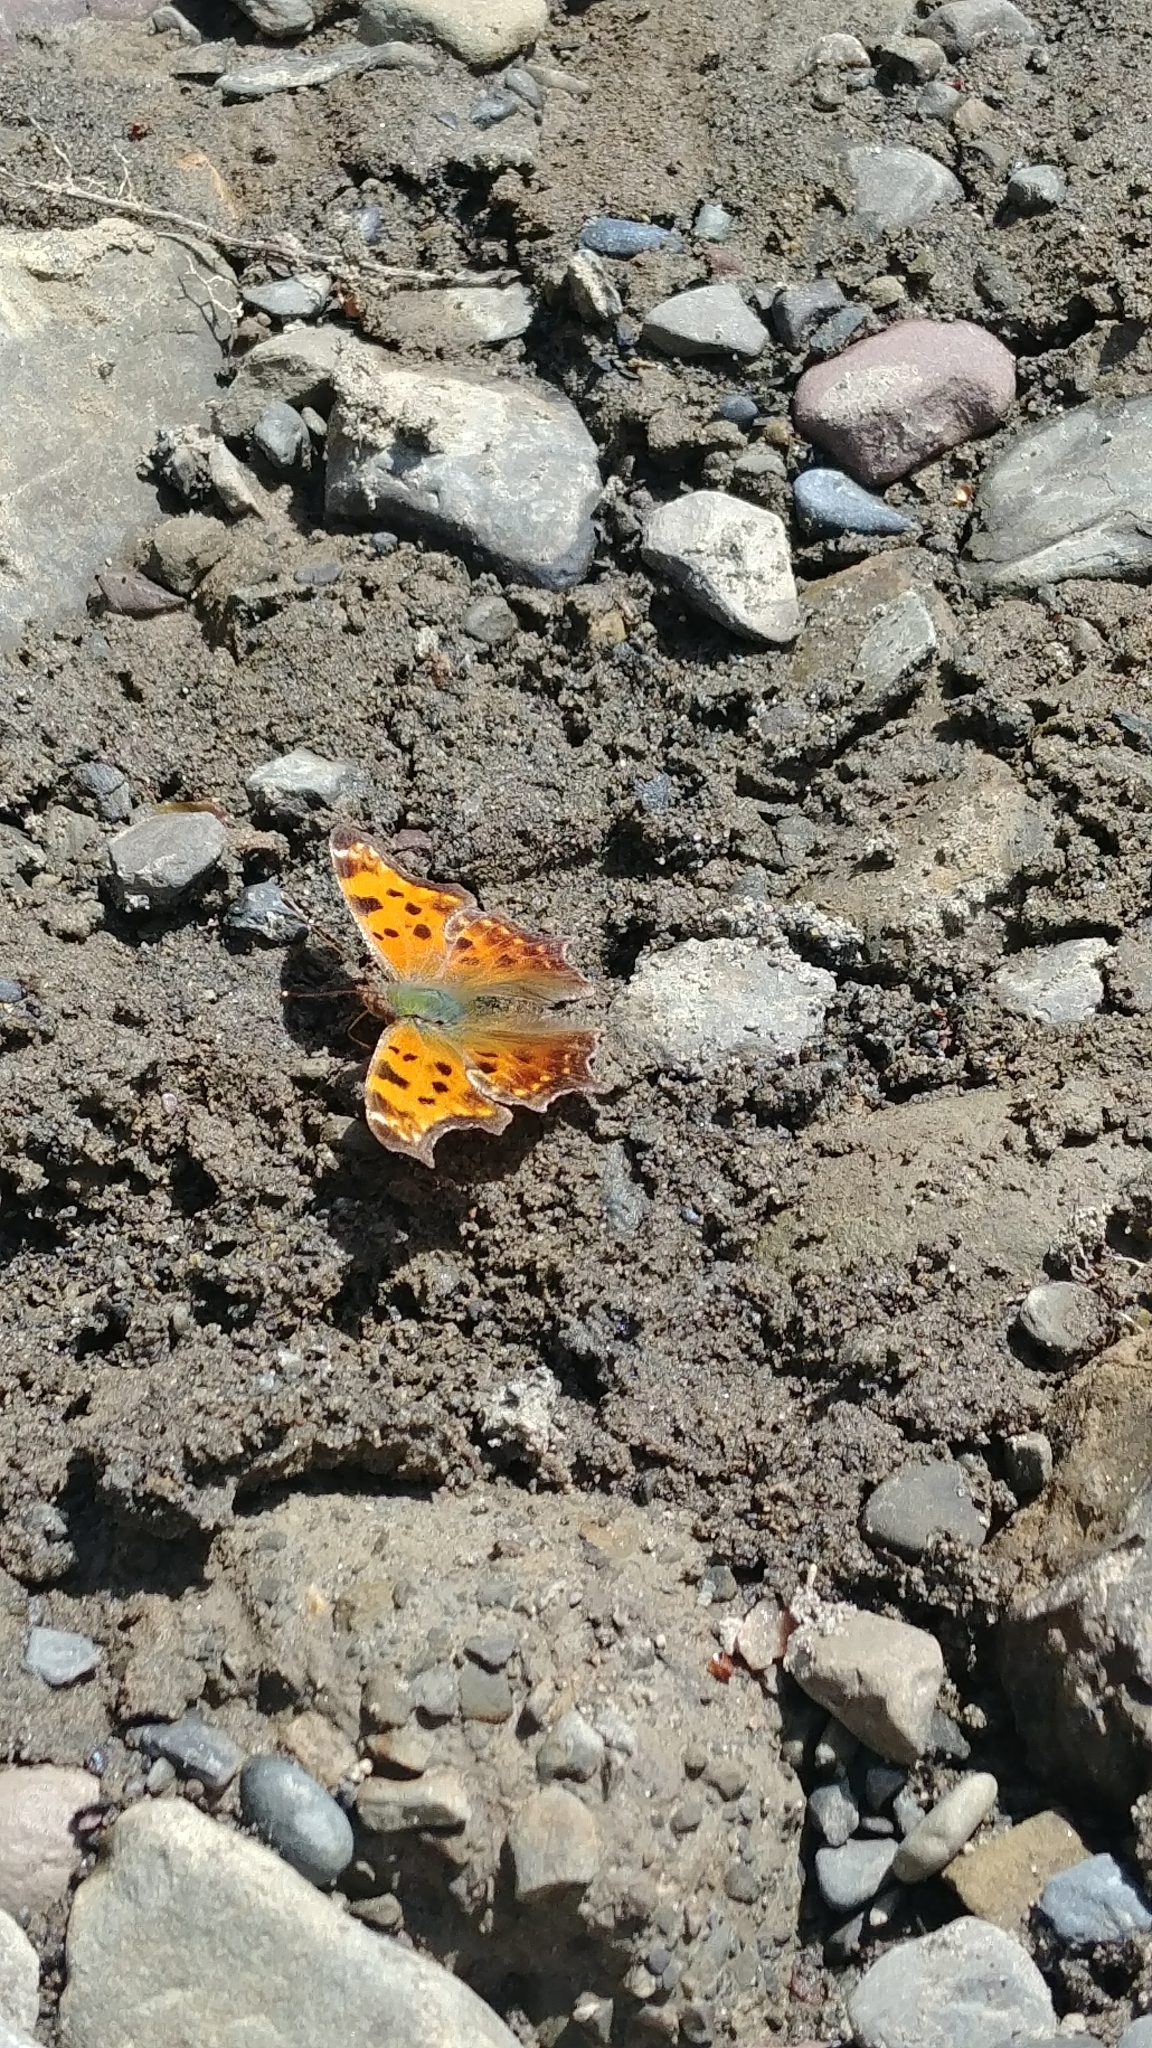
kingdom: Animalia
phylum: Arthropoda
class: Insecta
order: Lepidoptera
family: Nymphalidae
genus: Polygonia
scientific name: Polygonia comma
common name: Eastern comma
